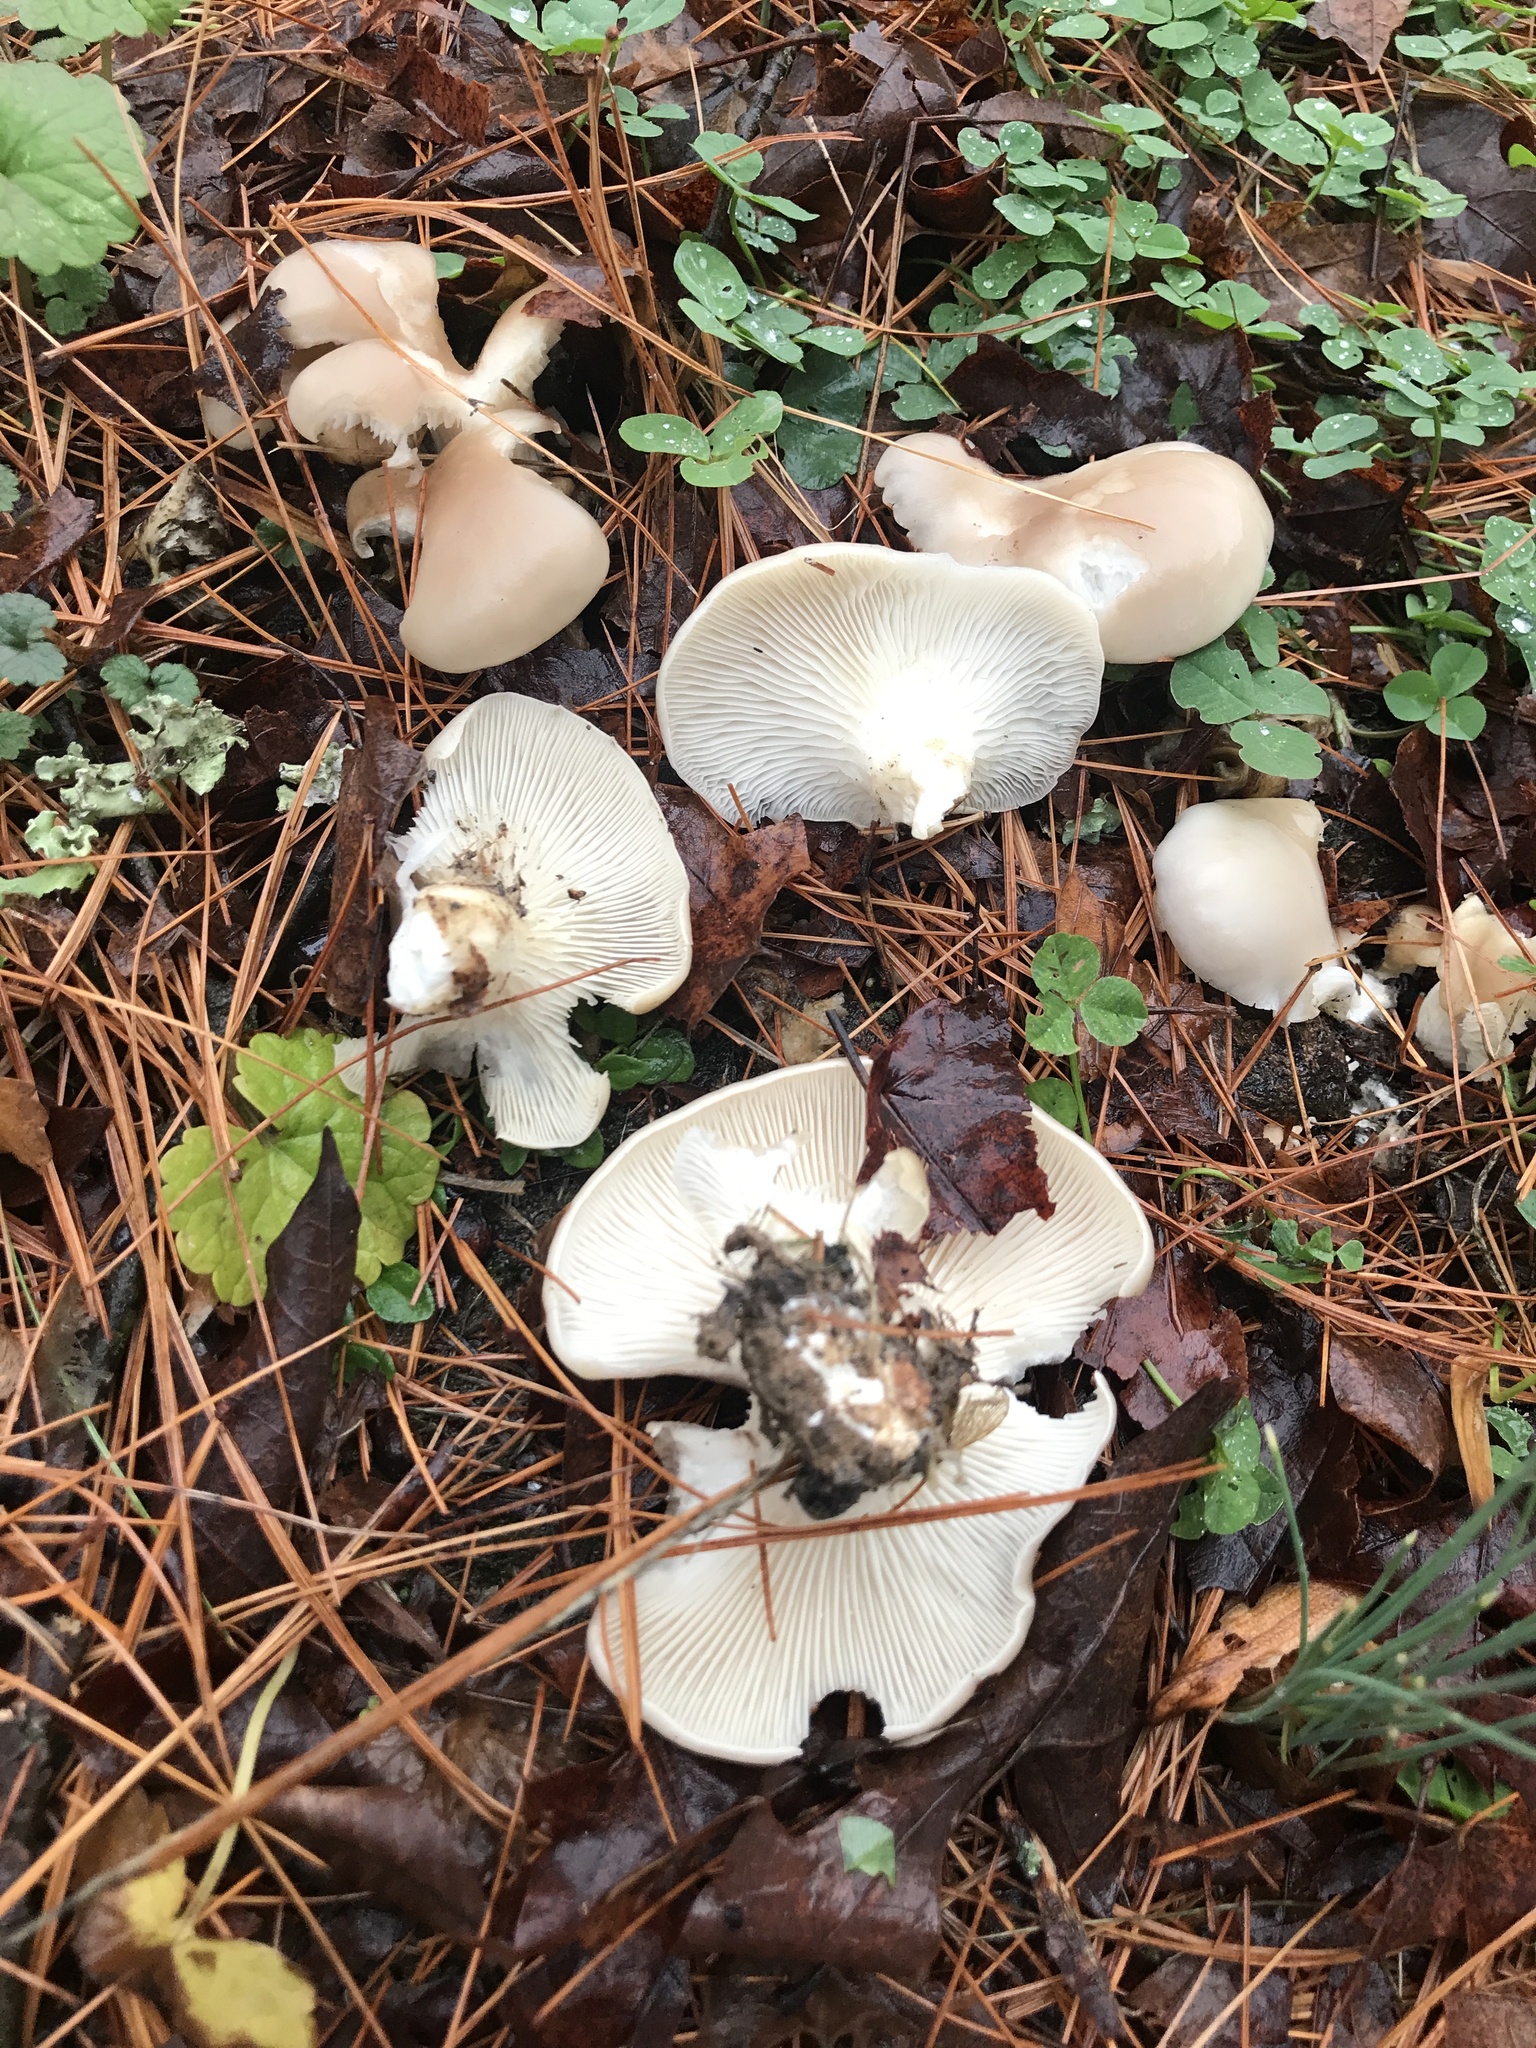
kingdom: Fungi
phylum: Basidiomycota
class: Agaricomycetes
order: Agaricales
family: Pleurotaceae
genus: Pleurotus
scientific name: Pleurotus ostreatus
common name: Oyster mushroom
